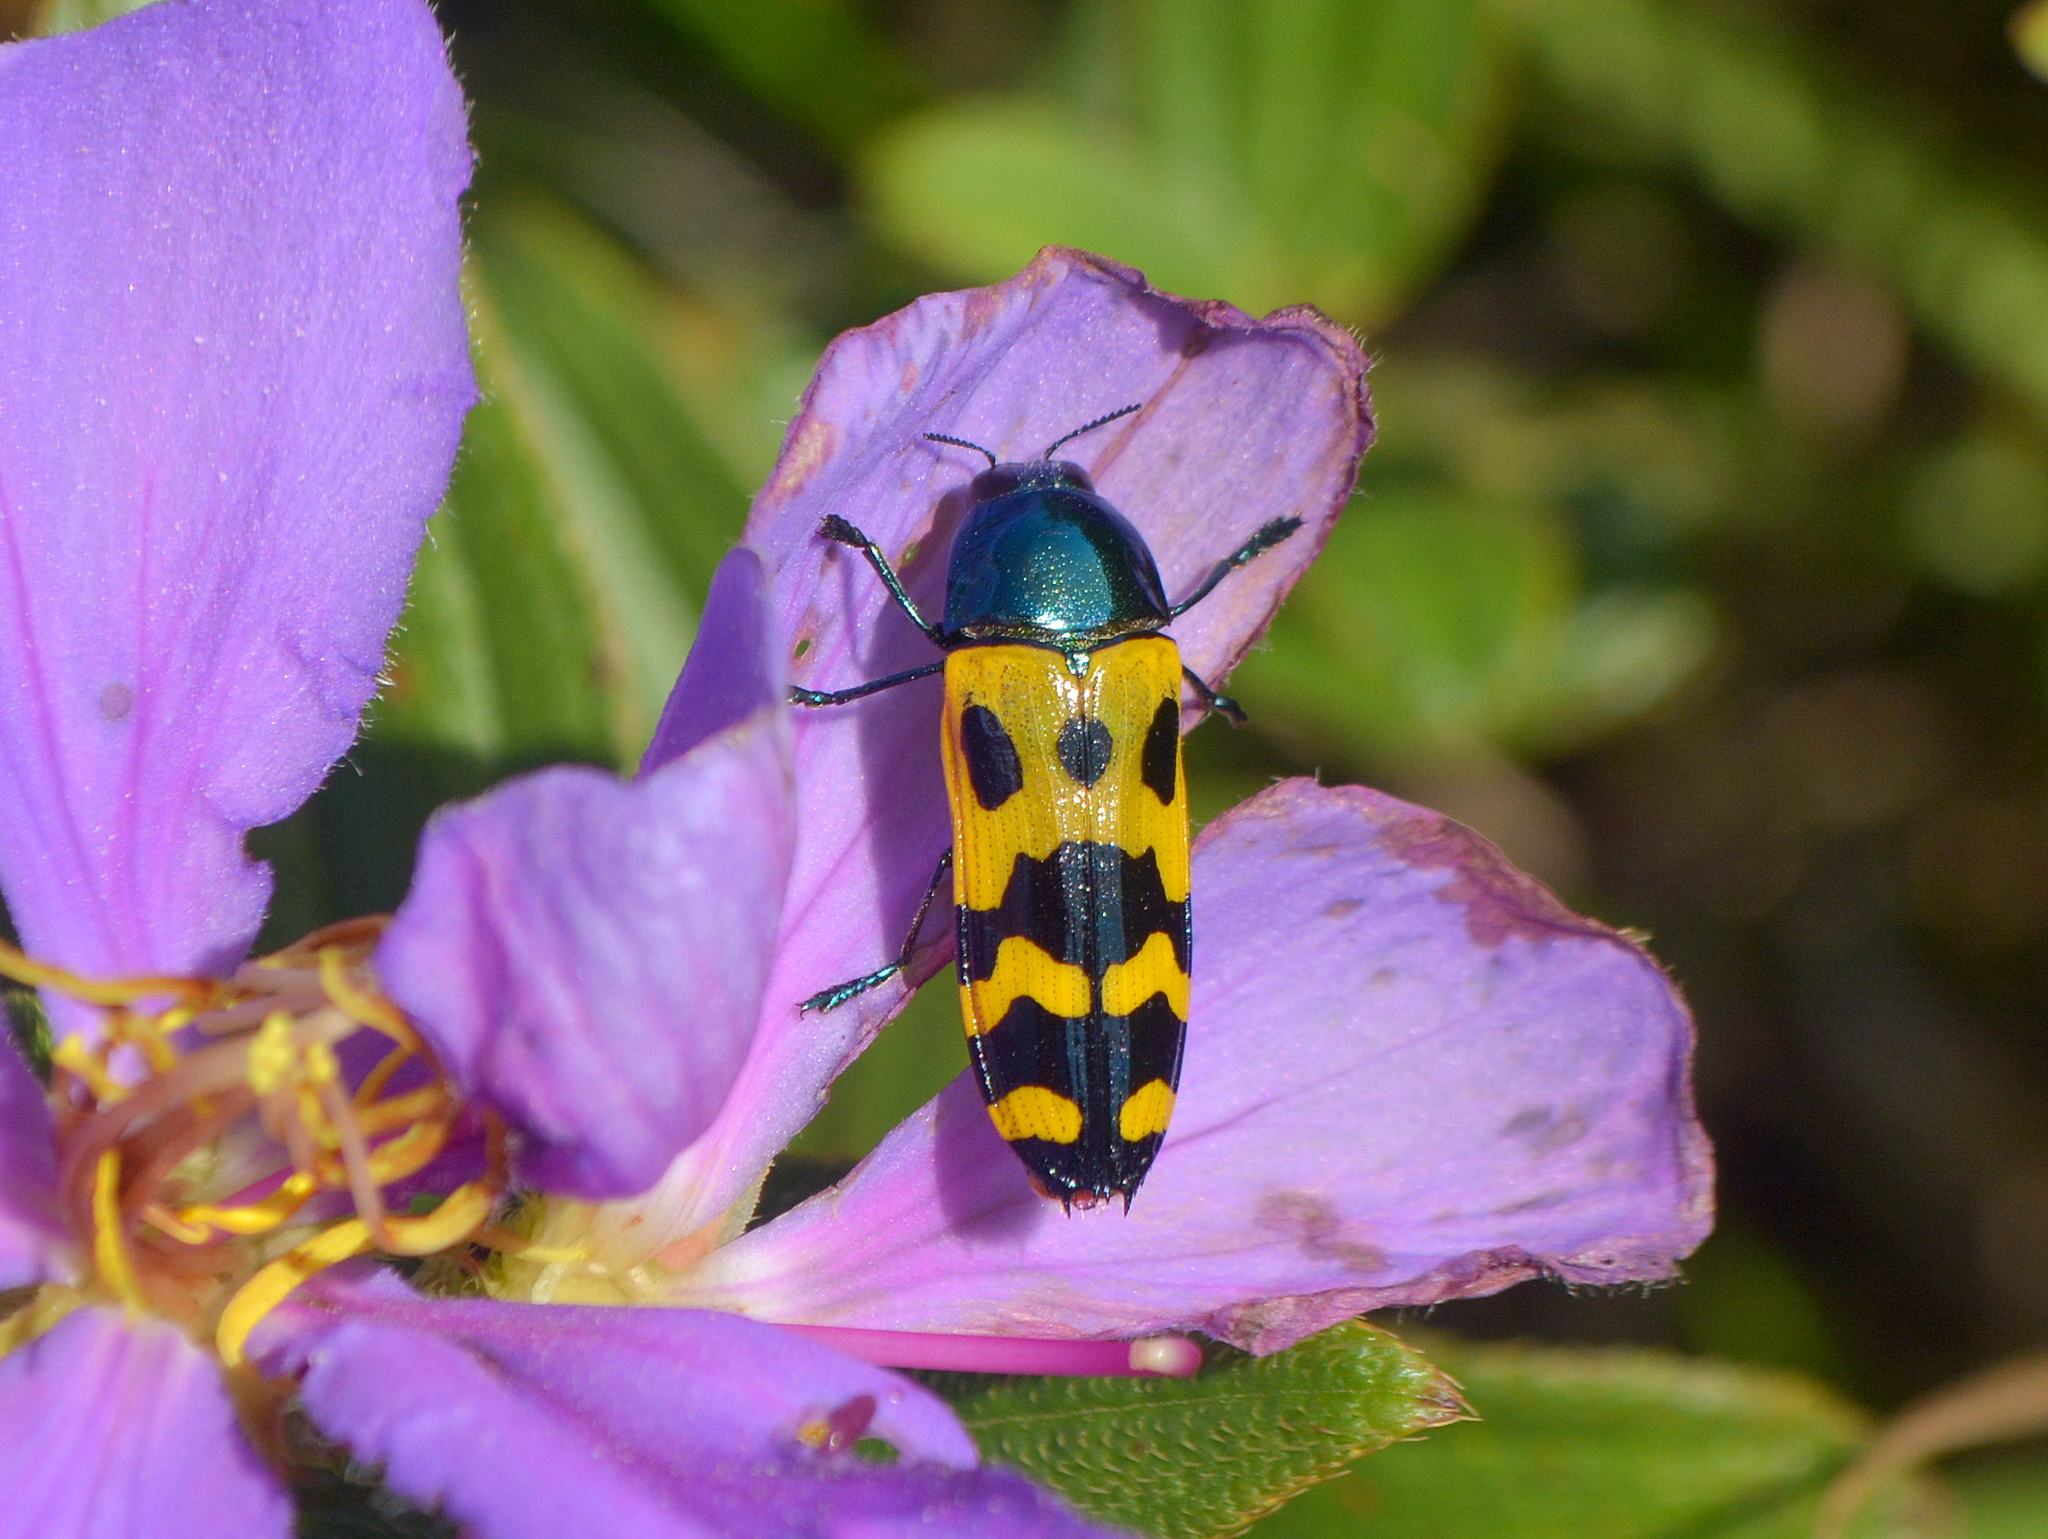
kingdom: Animalia
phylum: Arthropoda
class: Insecta
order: Coleoptera
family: Buprestidae
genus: Conognatha
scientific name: Conognatha parallela
